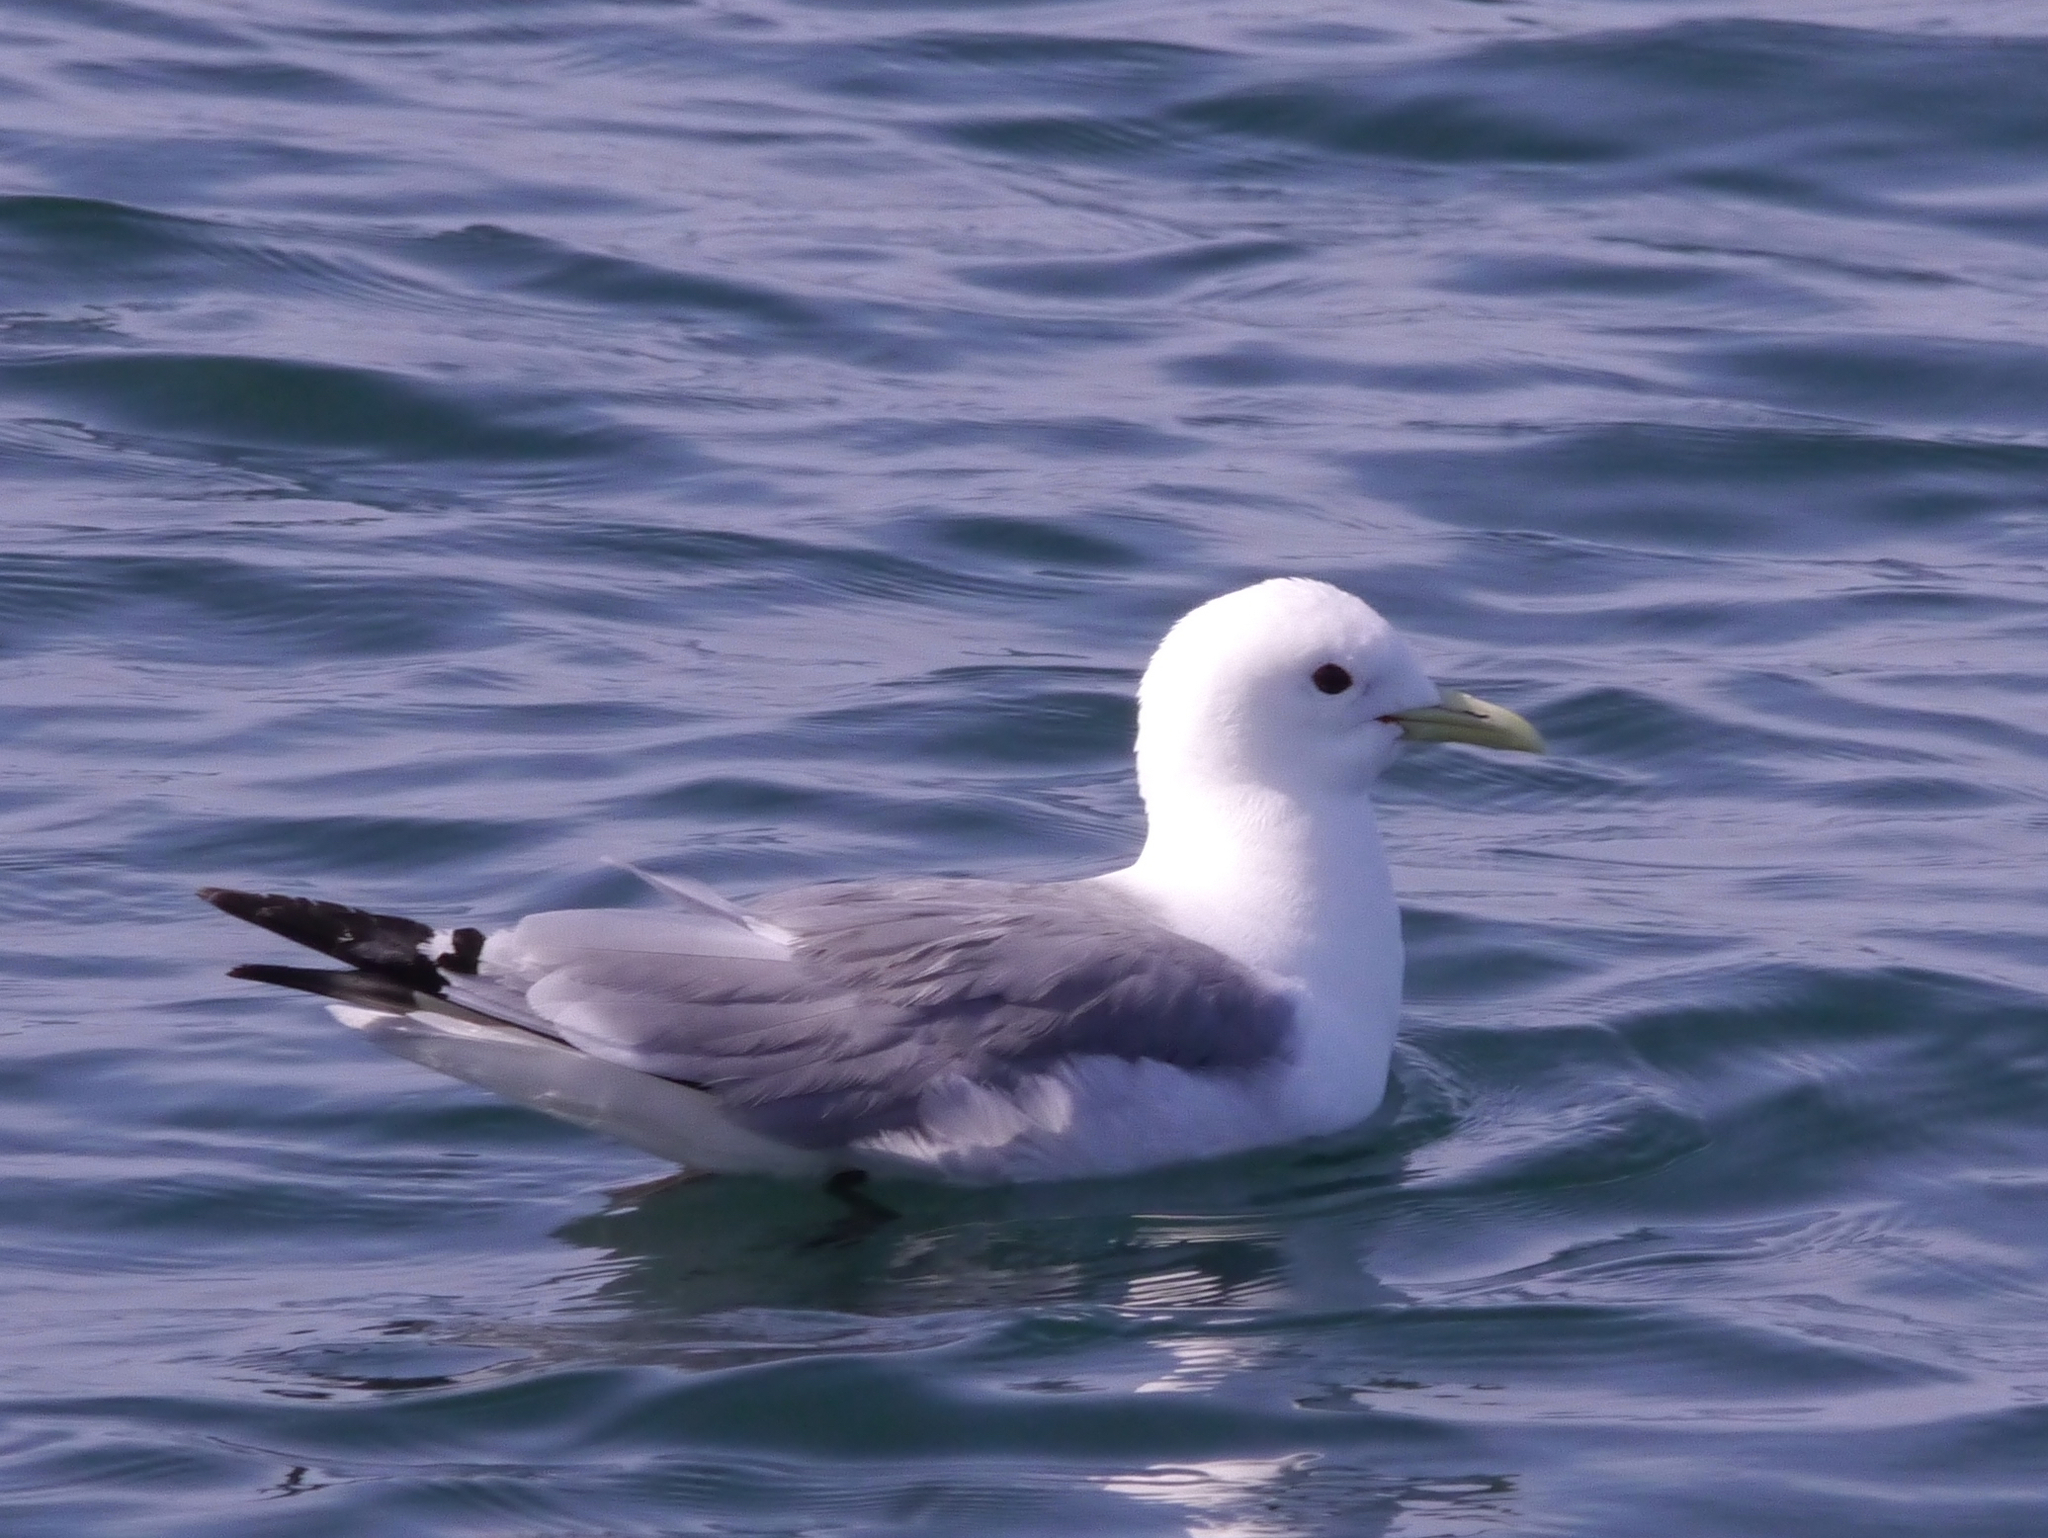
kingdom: Animalia
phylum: Chordata
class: Aves
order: Charadriiformes
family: Laridae
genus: Rissa
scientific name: Rissa tridactyla
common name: Black-legged kittiwake
